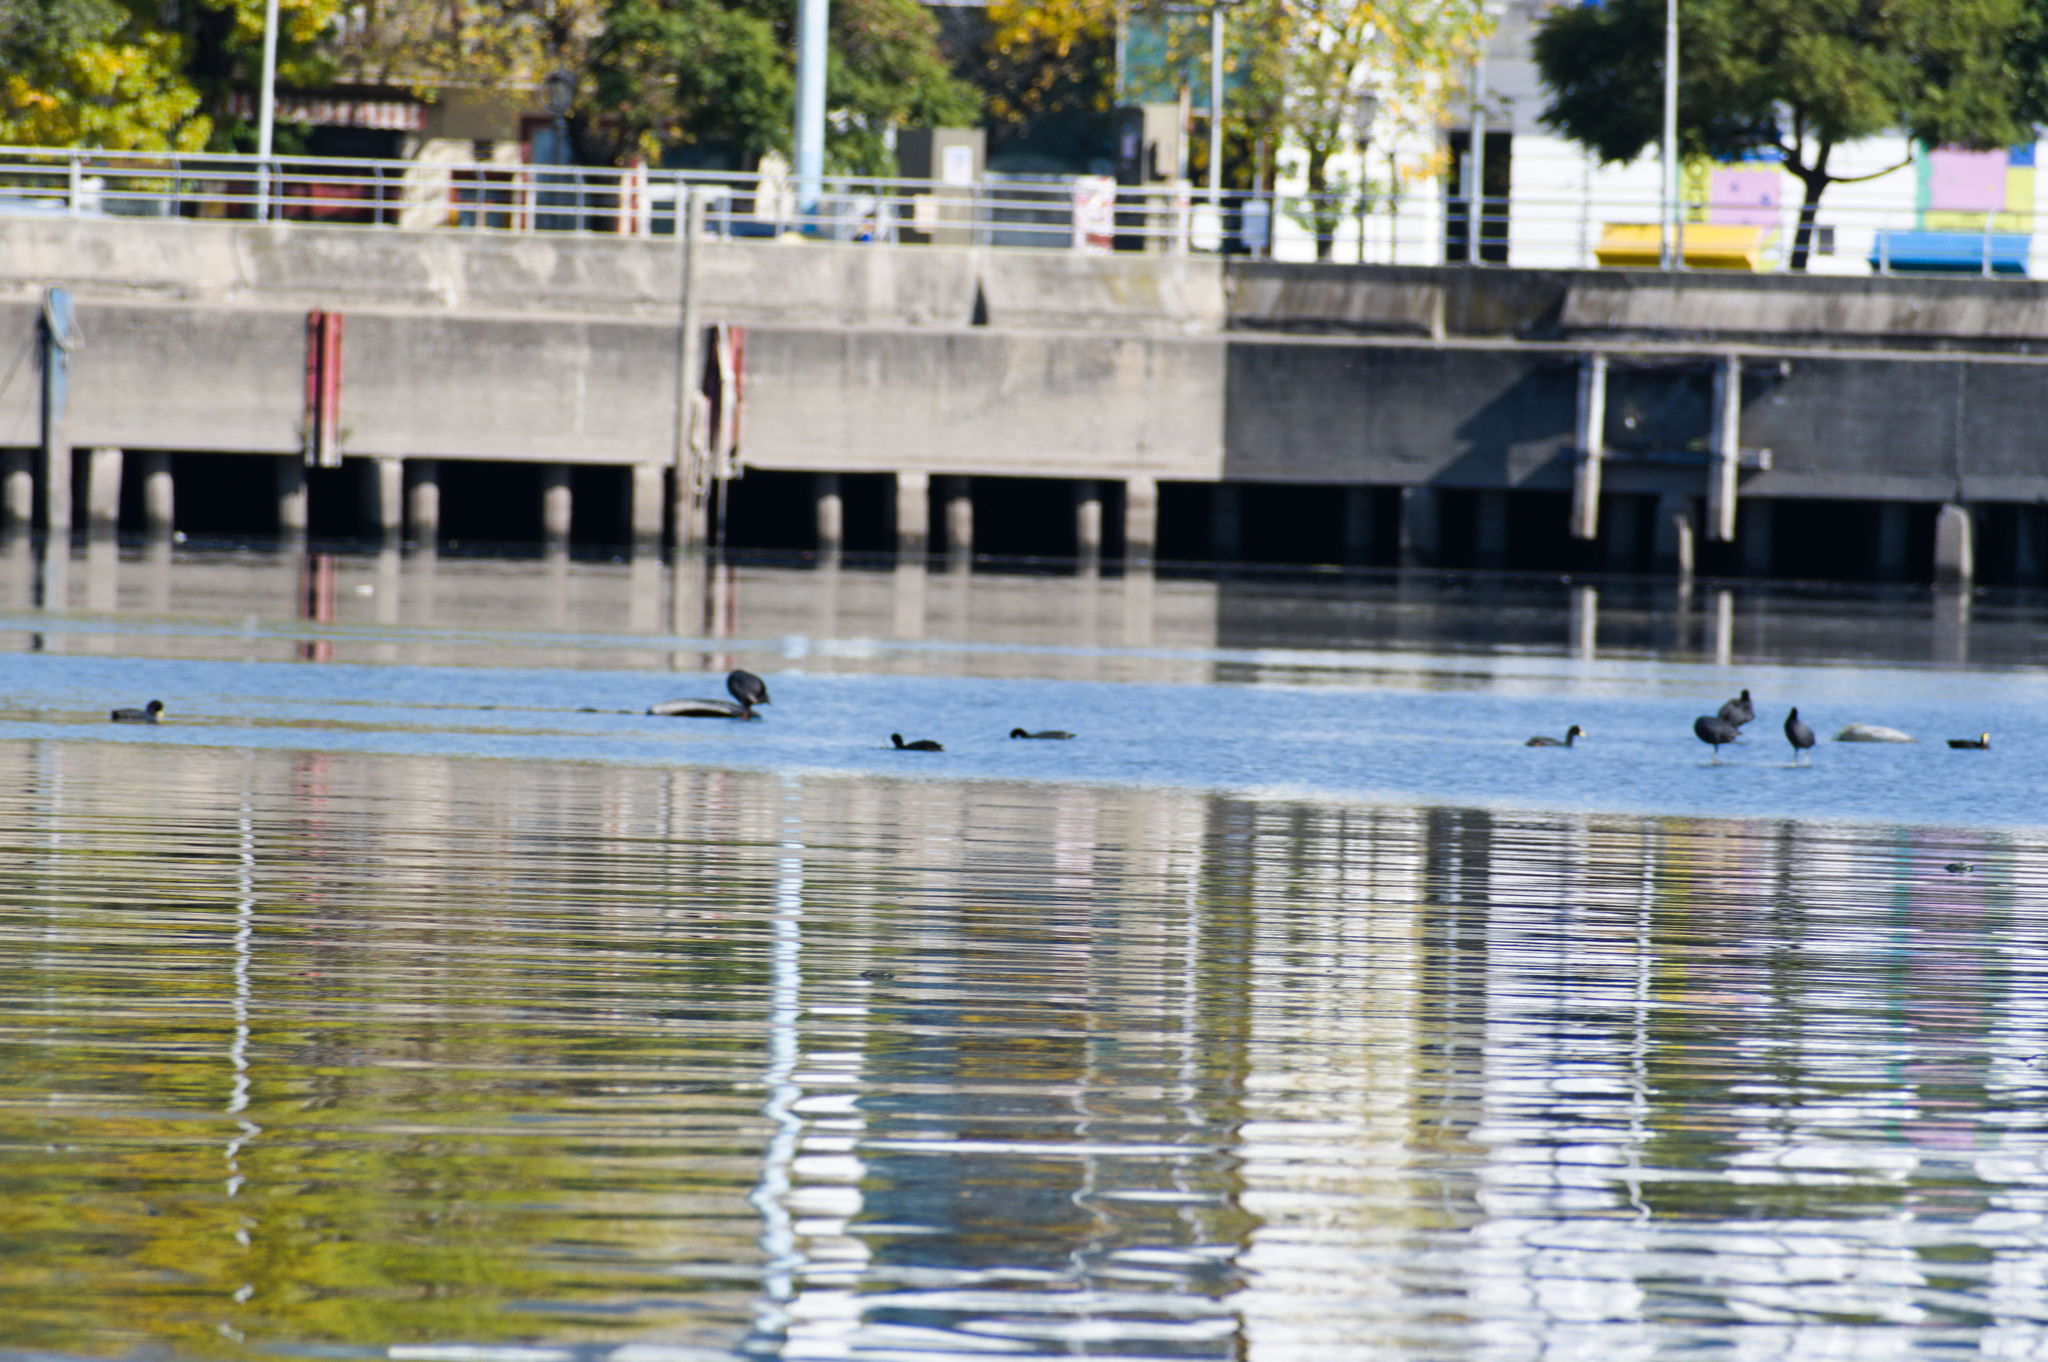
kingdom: Animalia
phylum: Chordata
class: Aves
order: Gruiformes
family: Rallidae
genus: Fulica
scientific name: Fulica leucoptera
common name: White-winged coot
